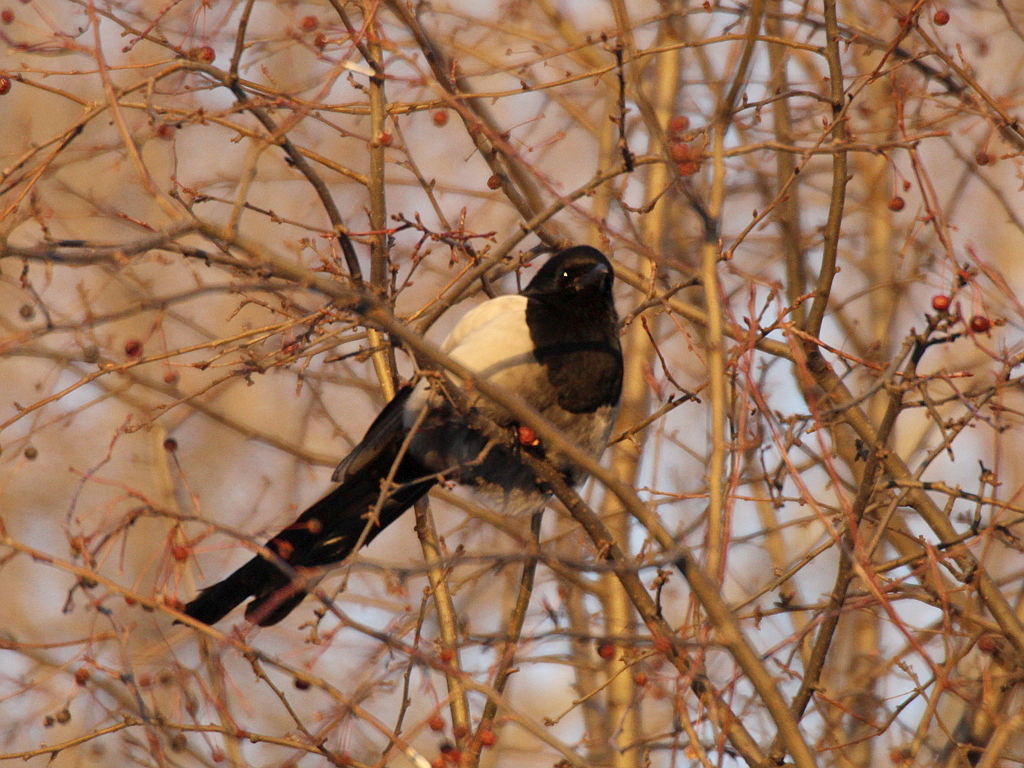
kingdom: Animalia
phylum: Chordata
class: Aves
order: Passeriformes
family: Corvidae
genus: Pica
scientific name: Pica pica
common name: Eurasian magpie
